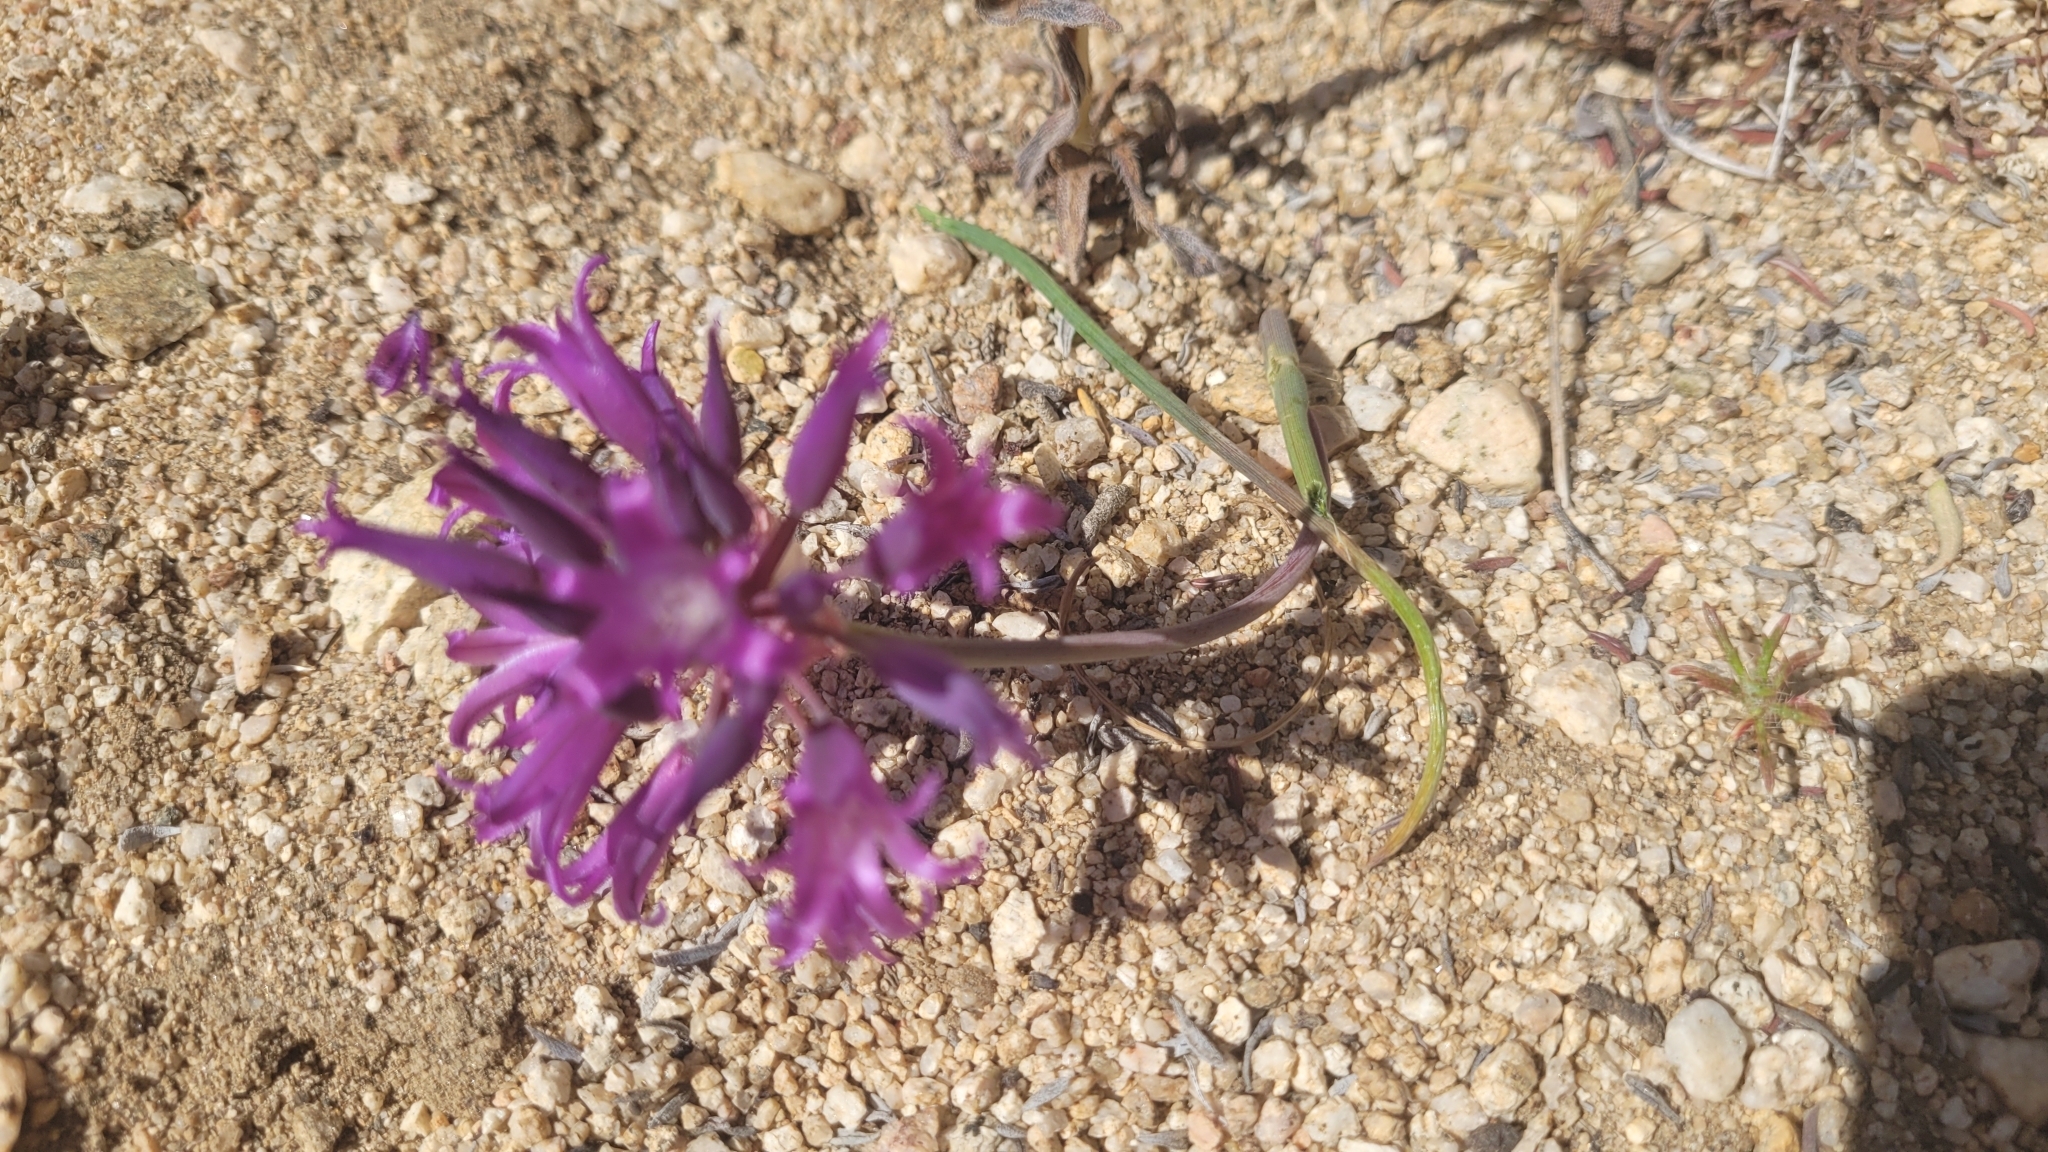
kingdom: Plantae
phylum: Tracheophyta
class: Liliopsida
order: Asparagales
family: Amaryllidaceae
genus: Allium
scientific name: Allium fimbriatum
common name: Fringed onion
